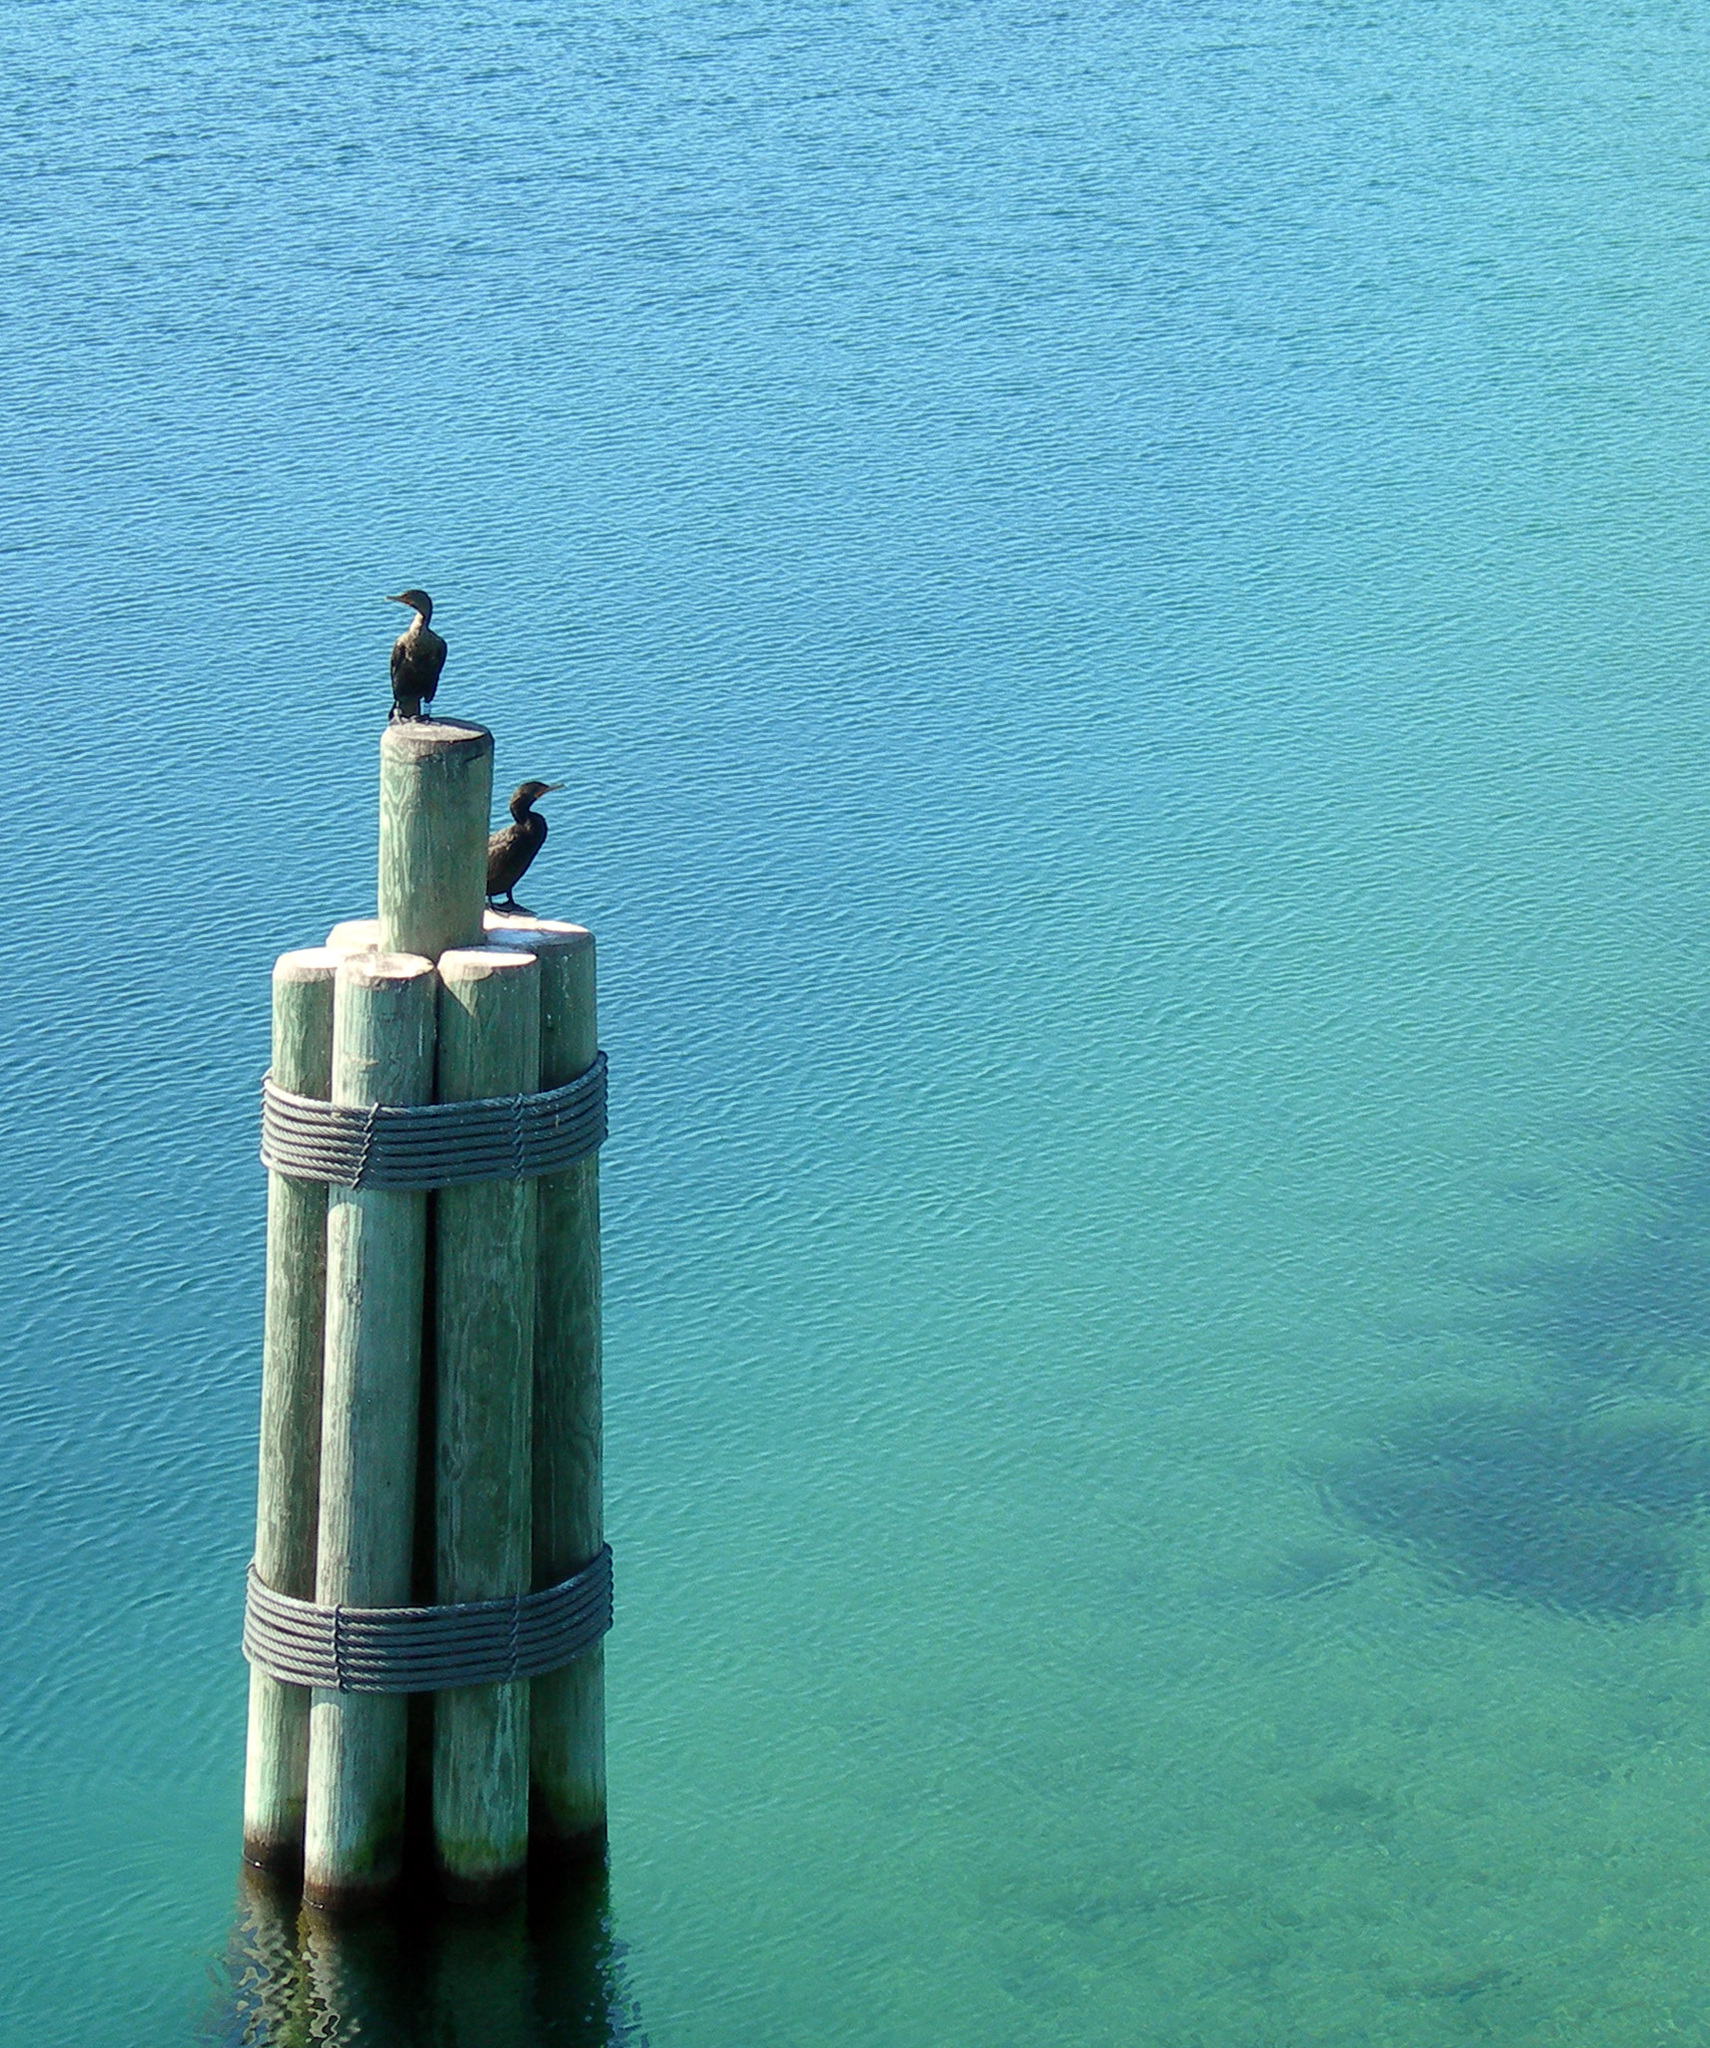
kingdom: Animalia
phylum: Chordata
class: Aves
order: Suliformes
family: Phalacrocoracidae
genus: Phalacrocorax
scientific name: Phalacrocorax auritus
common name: Double-crested cormorant
